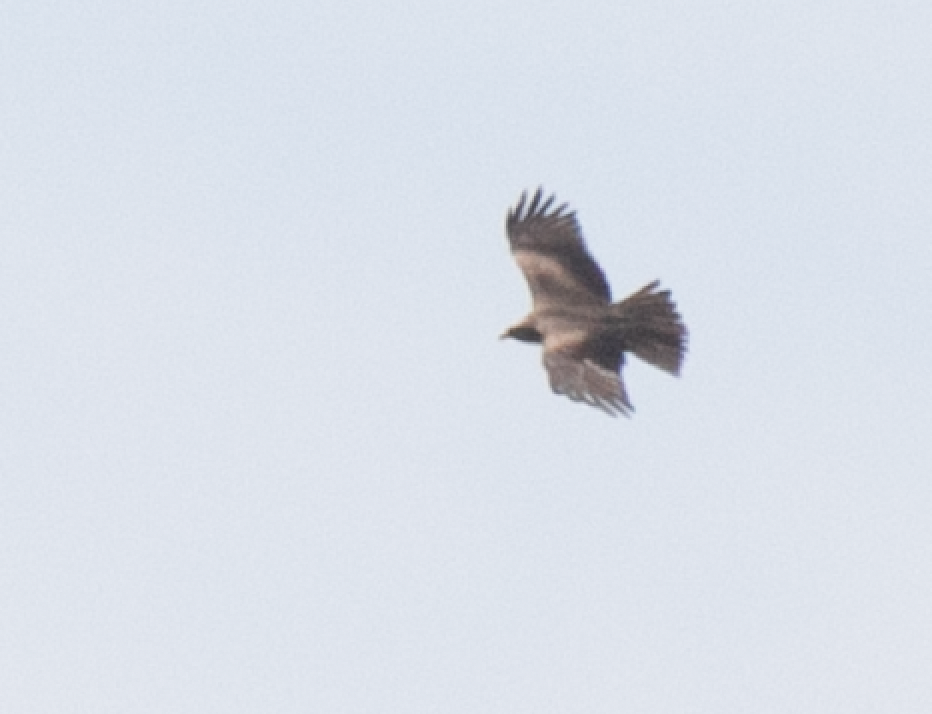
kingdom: Animalia
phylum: Chordata
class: Aves
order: Accipitriformes
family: Accipitridae
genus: Milvus
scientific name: Milvus migrans
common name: Black kite
